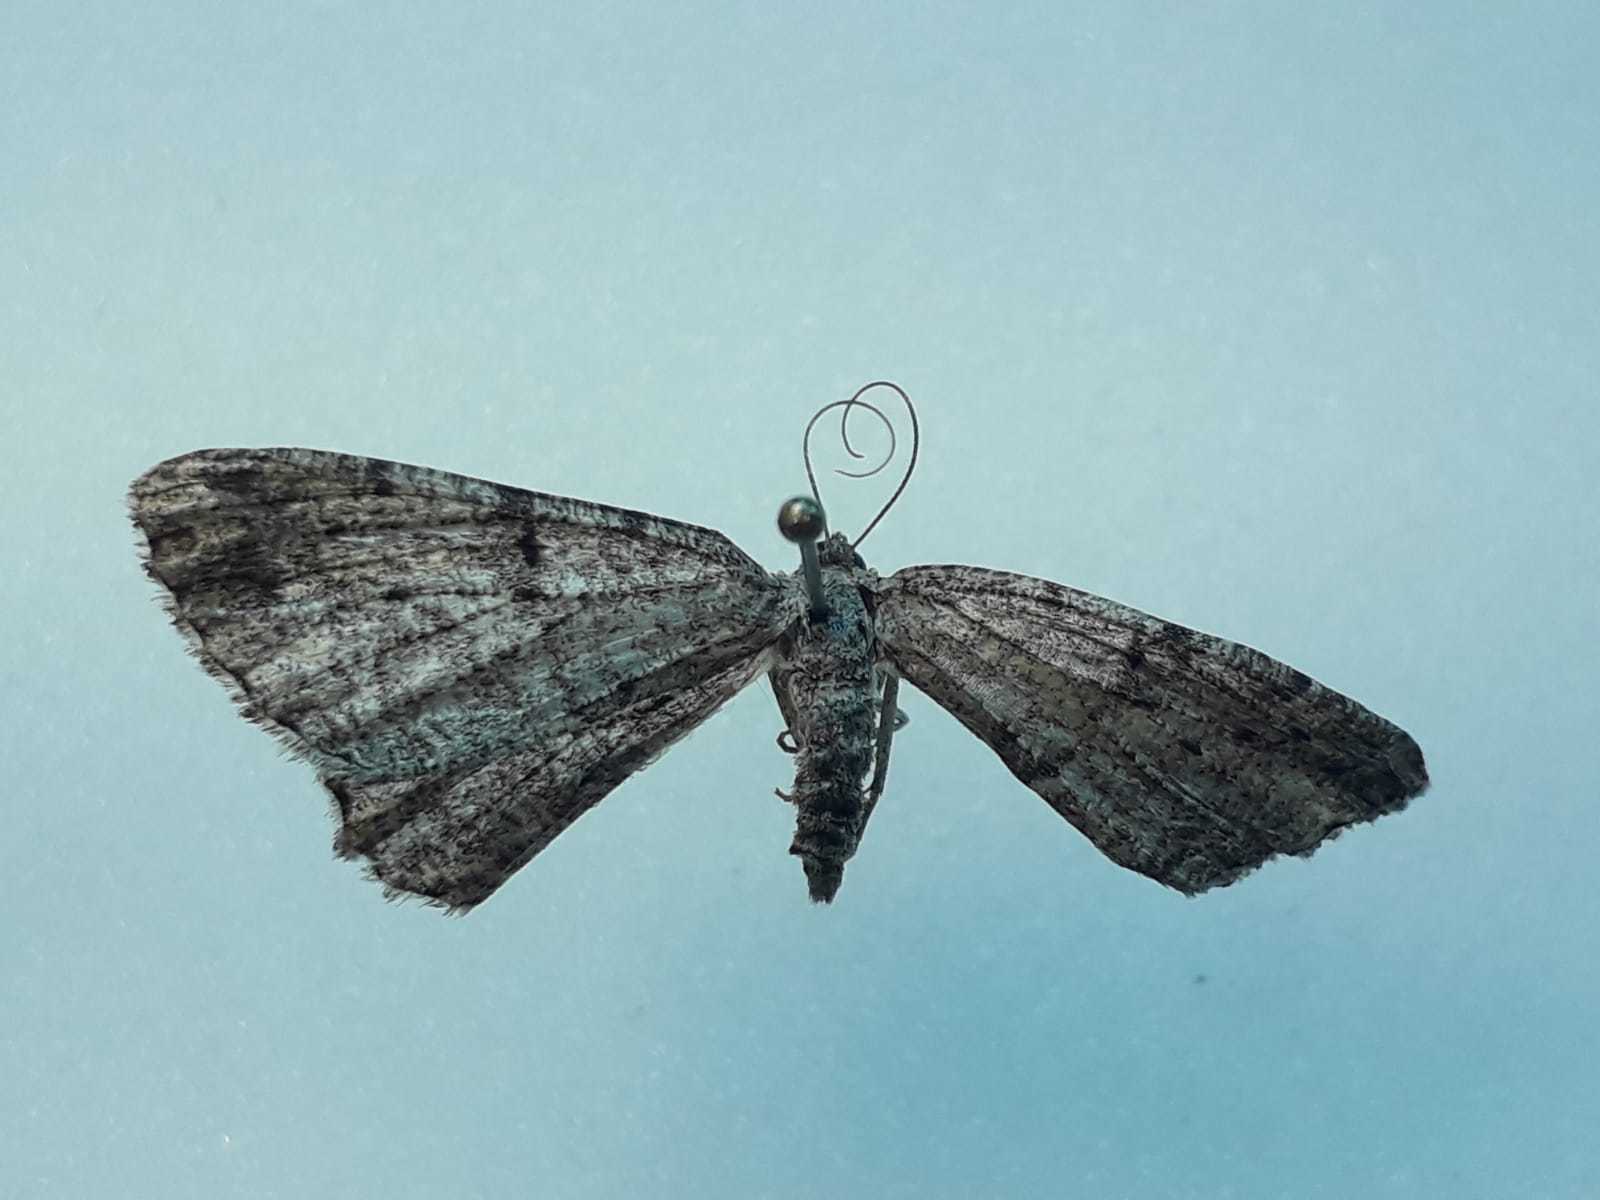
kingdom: Animalia
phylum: Arthropoda
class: Insecta
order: Lepidoptera
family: Geometridae
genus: Peribatodes
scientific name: Peribatodes rhomboidaria
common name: Willow beauty
